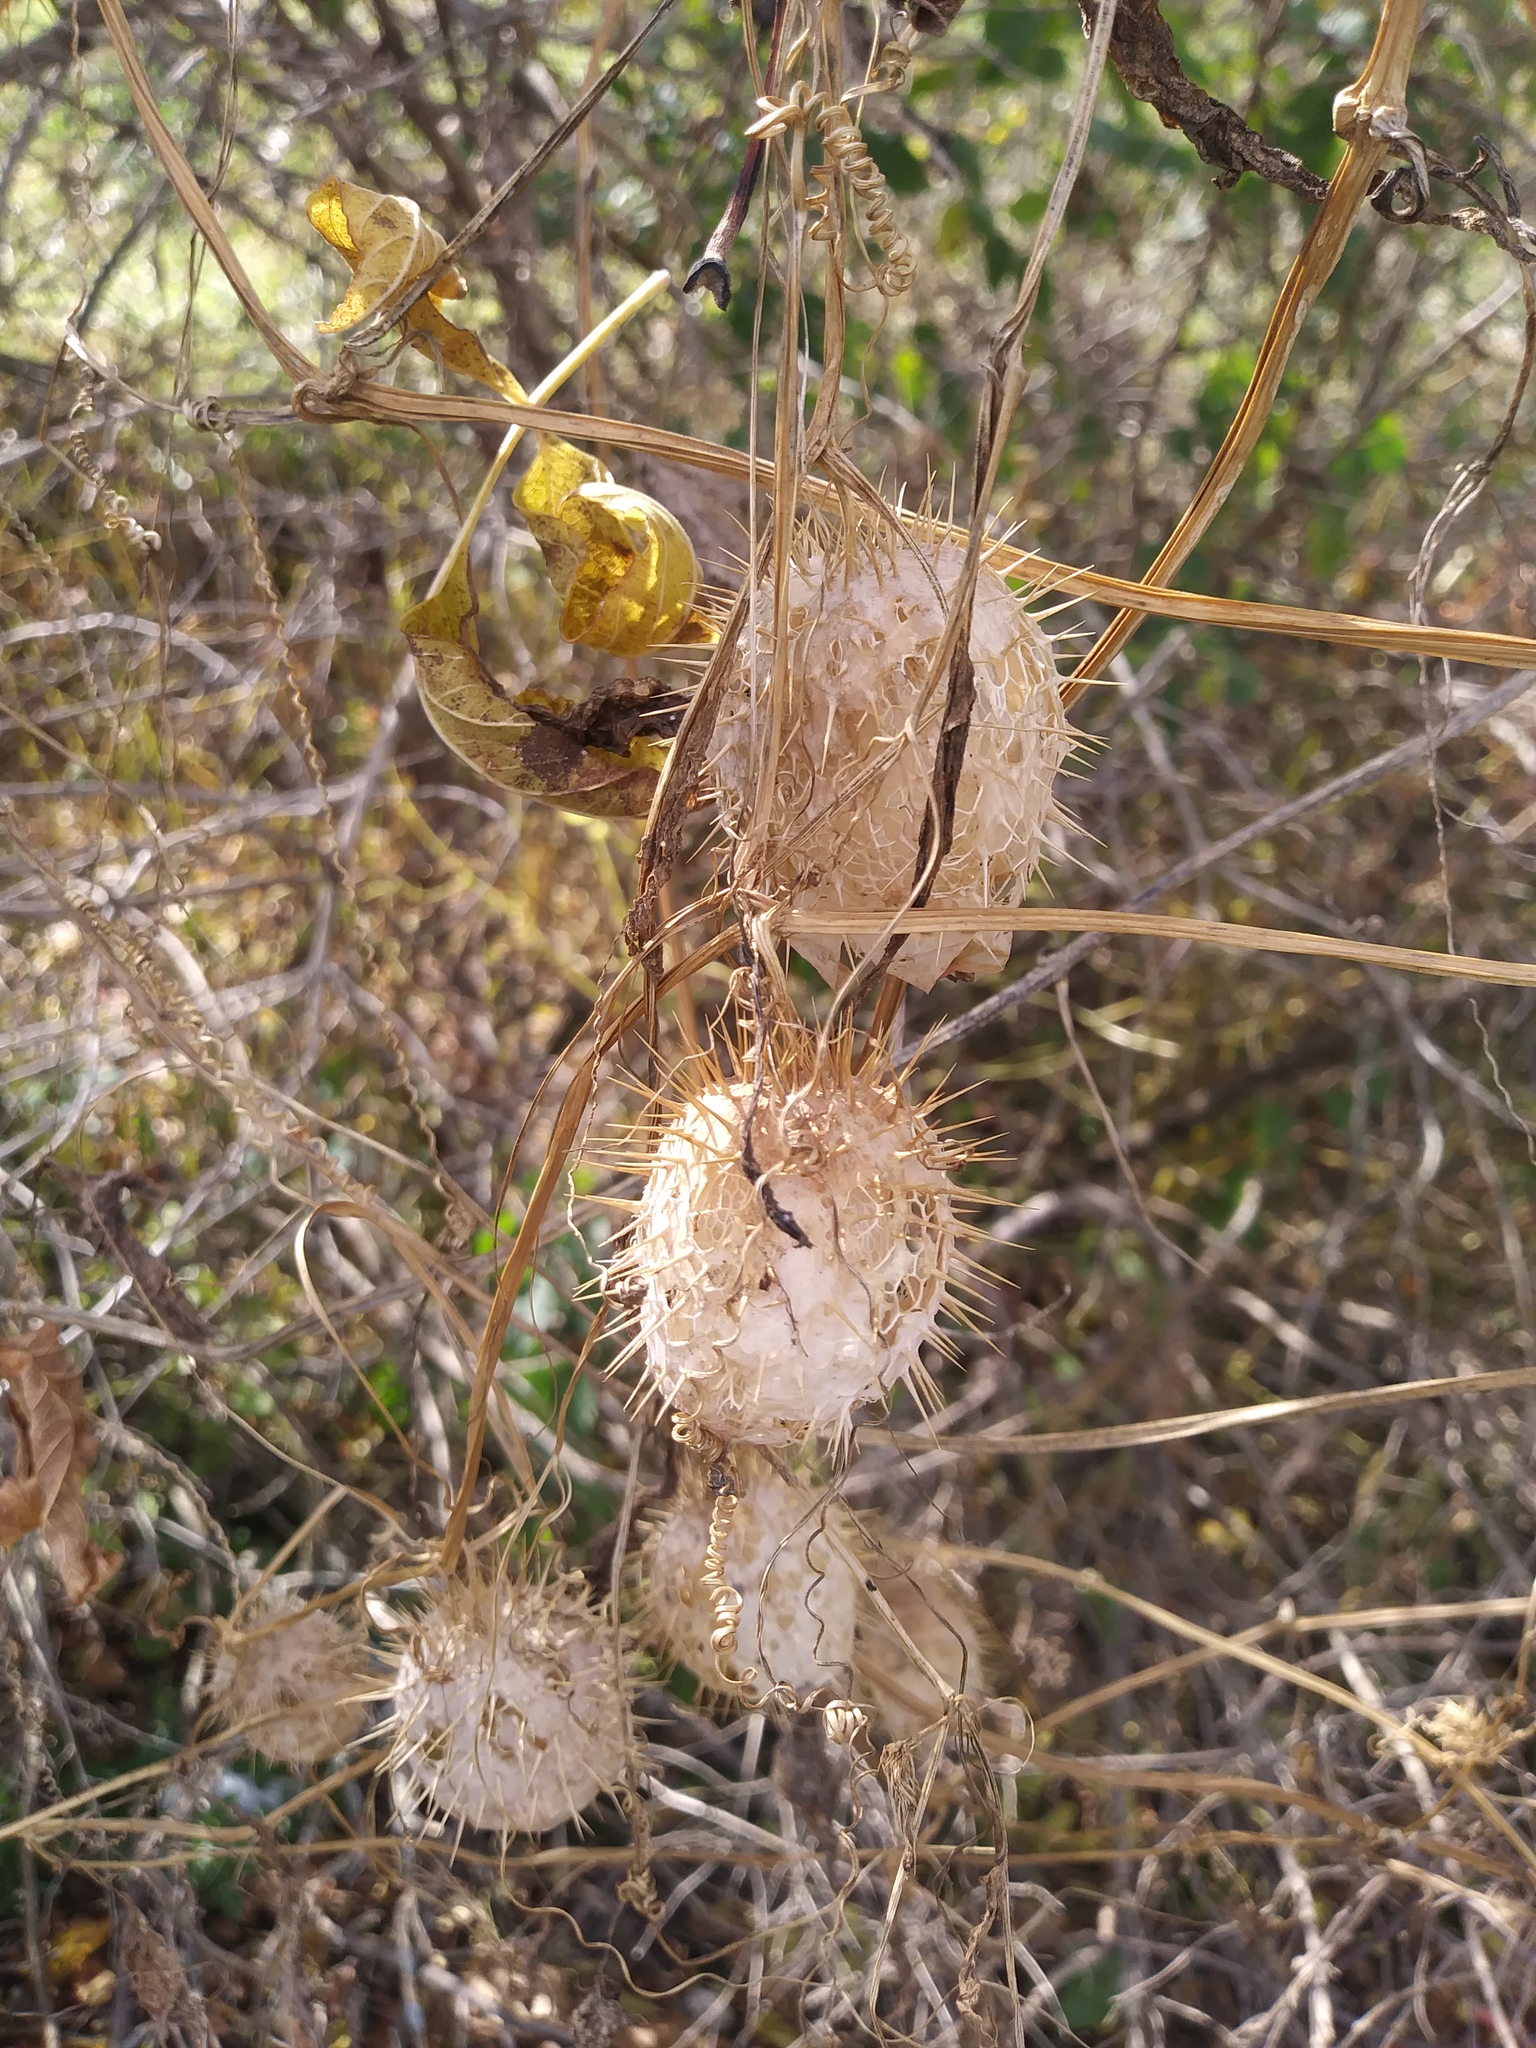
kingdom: Plantae
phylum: Tracheophyta
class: Magnoliopsida
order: Cucurbitales
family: Cucurbitaceae
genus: Echinocystis
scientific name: Echinocystis lobata
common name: Wild cucumber
